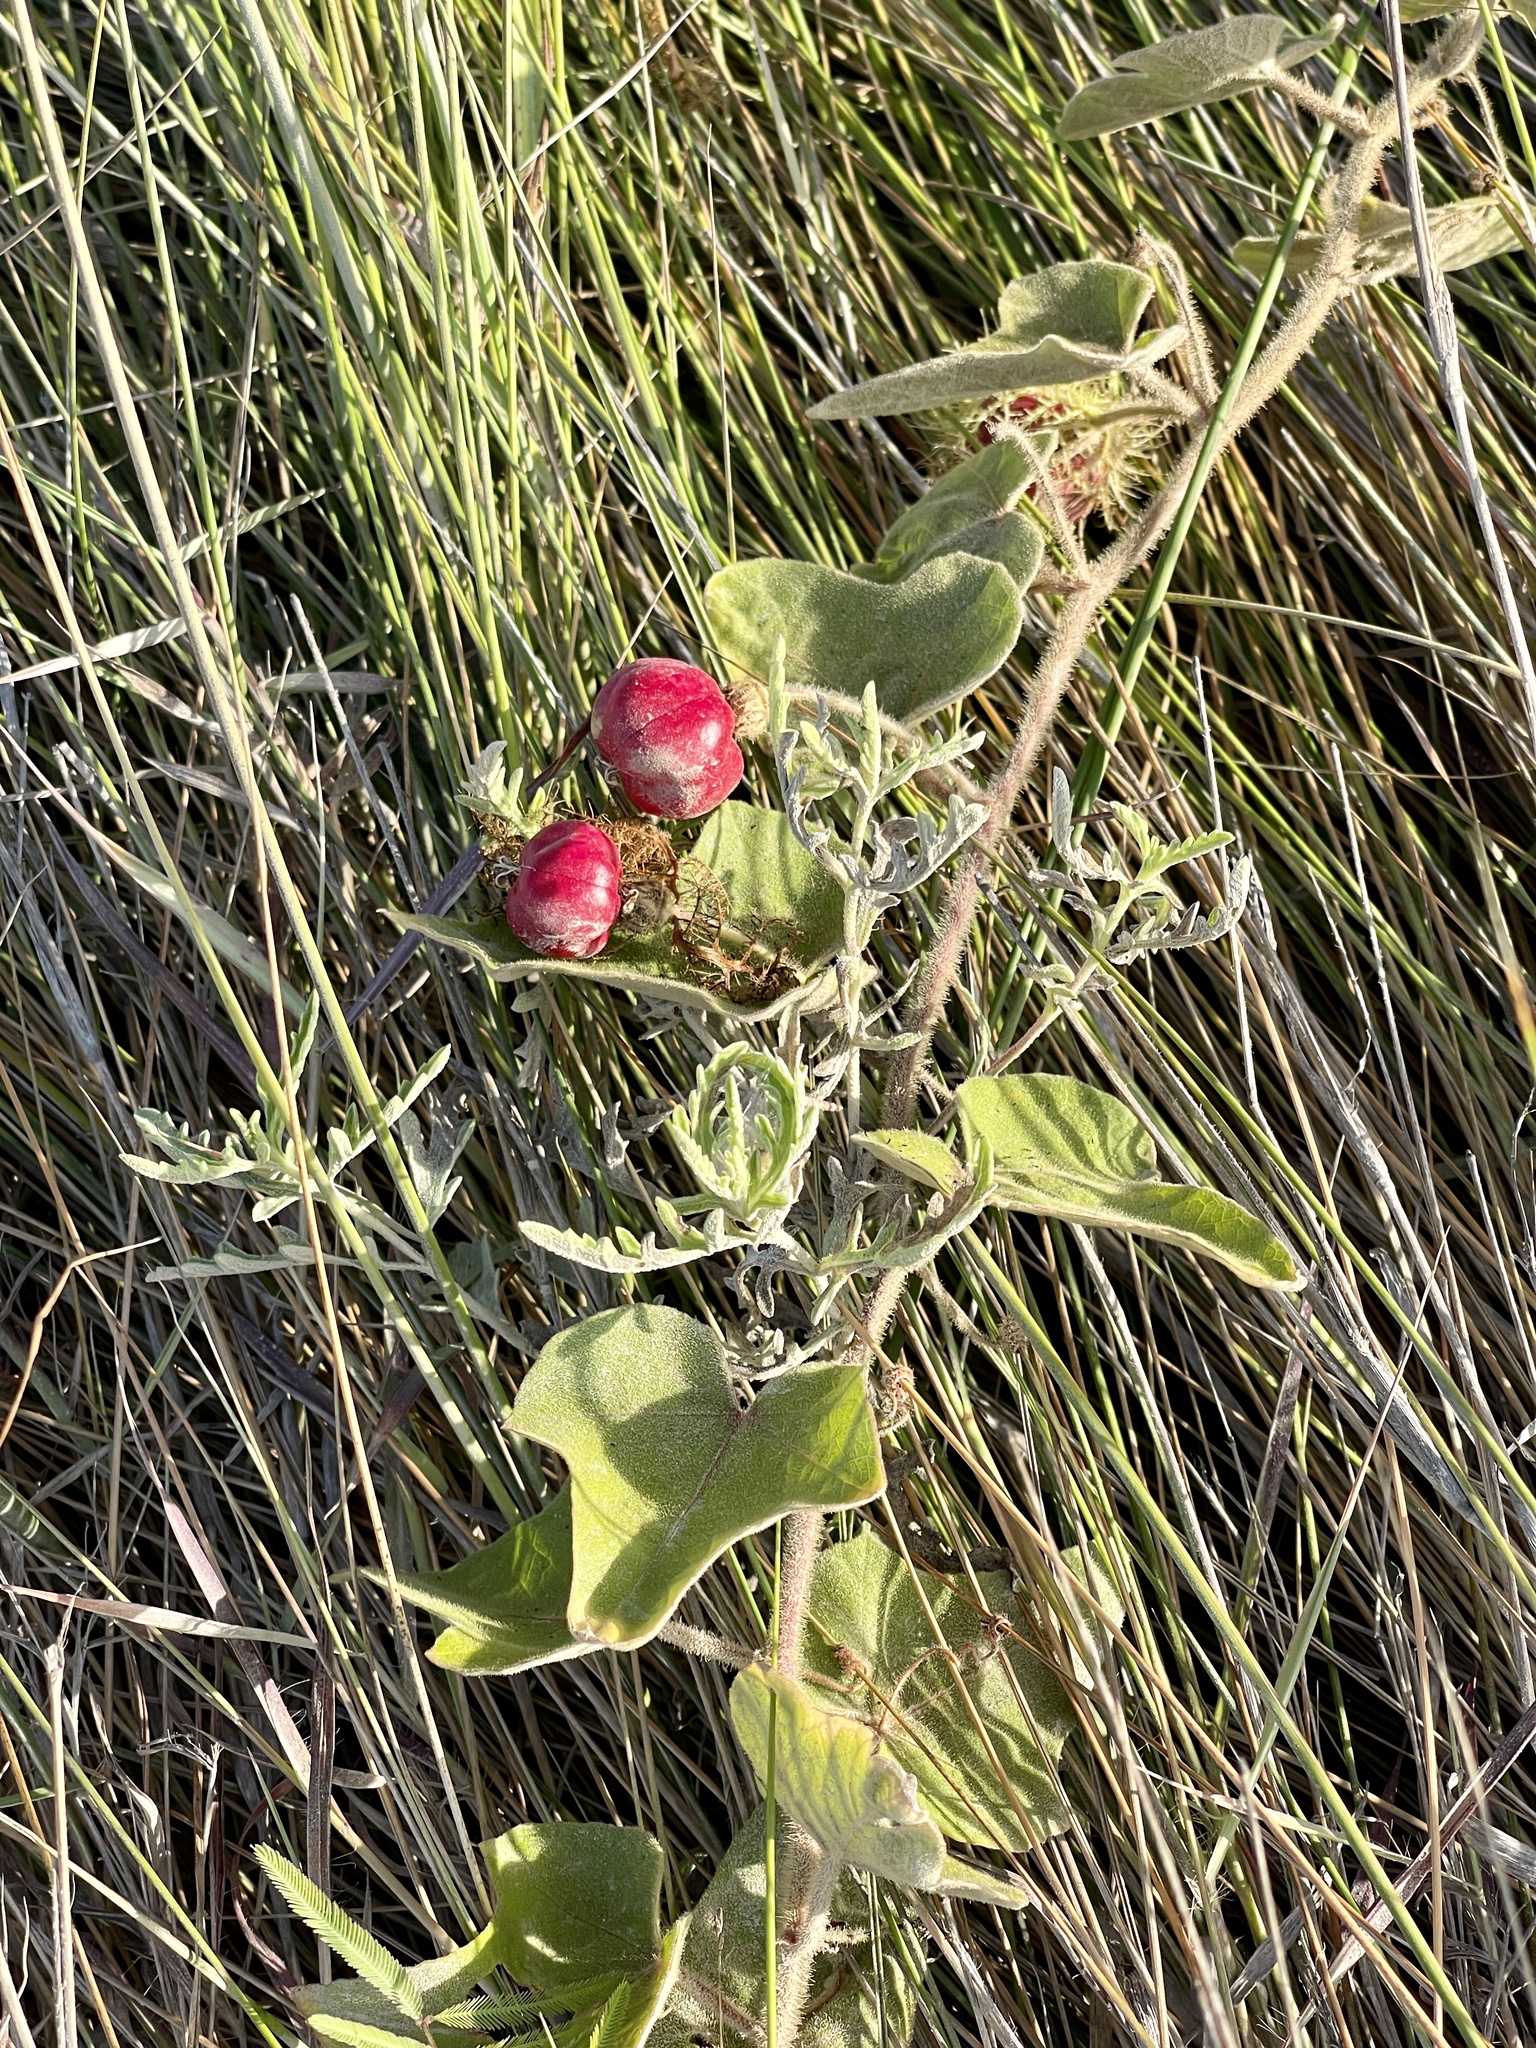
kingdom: Plantae
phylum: Tracheophyta
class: Magnoliopsida
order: Malpighiales
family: Passifloraceae
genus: Passiflora
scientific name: Passiflora
